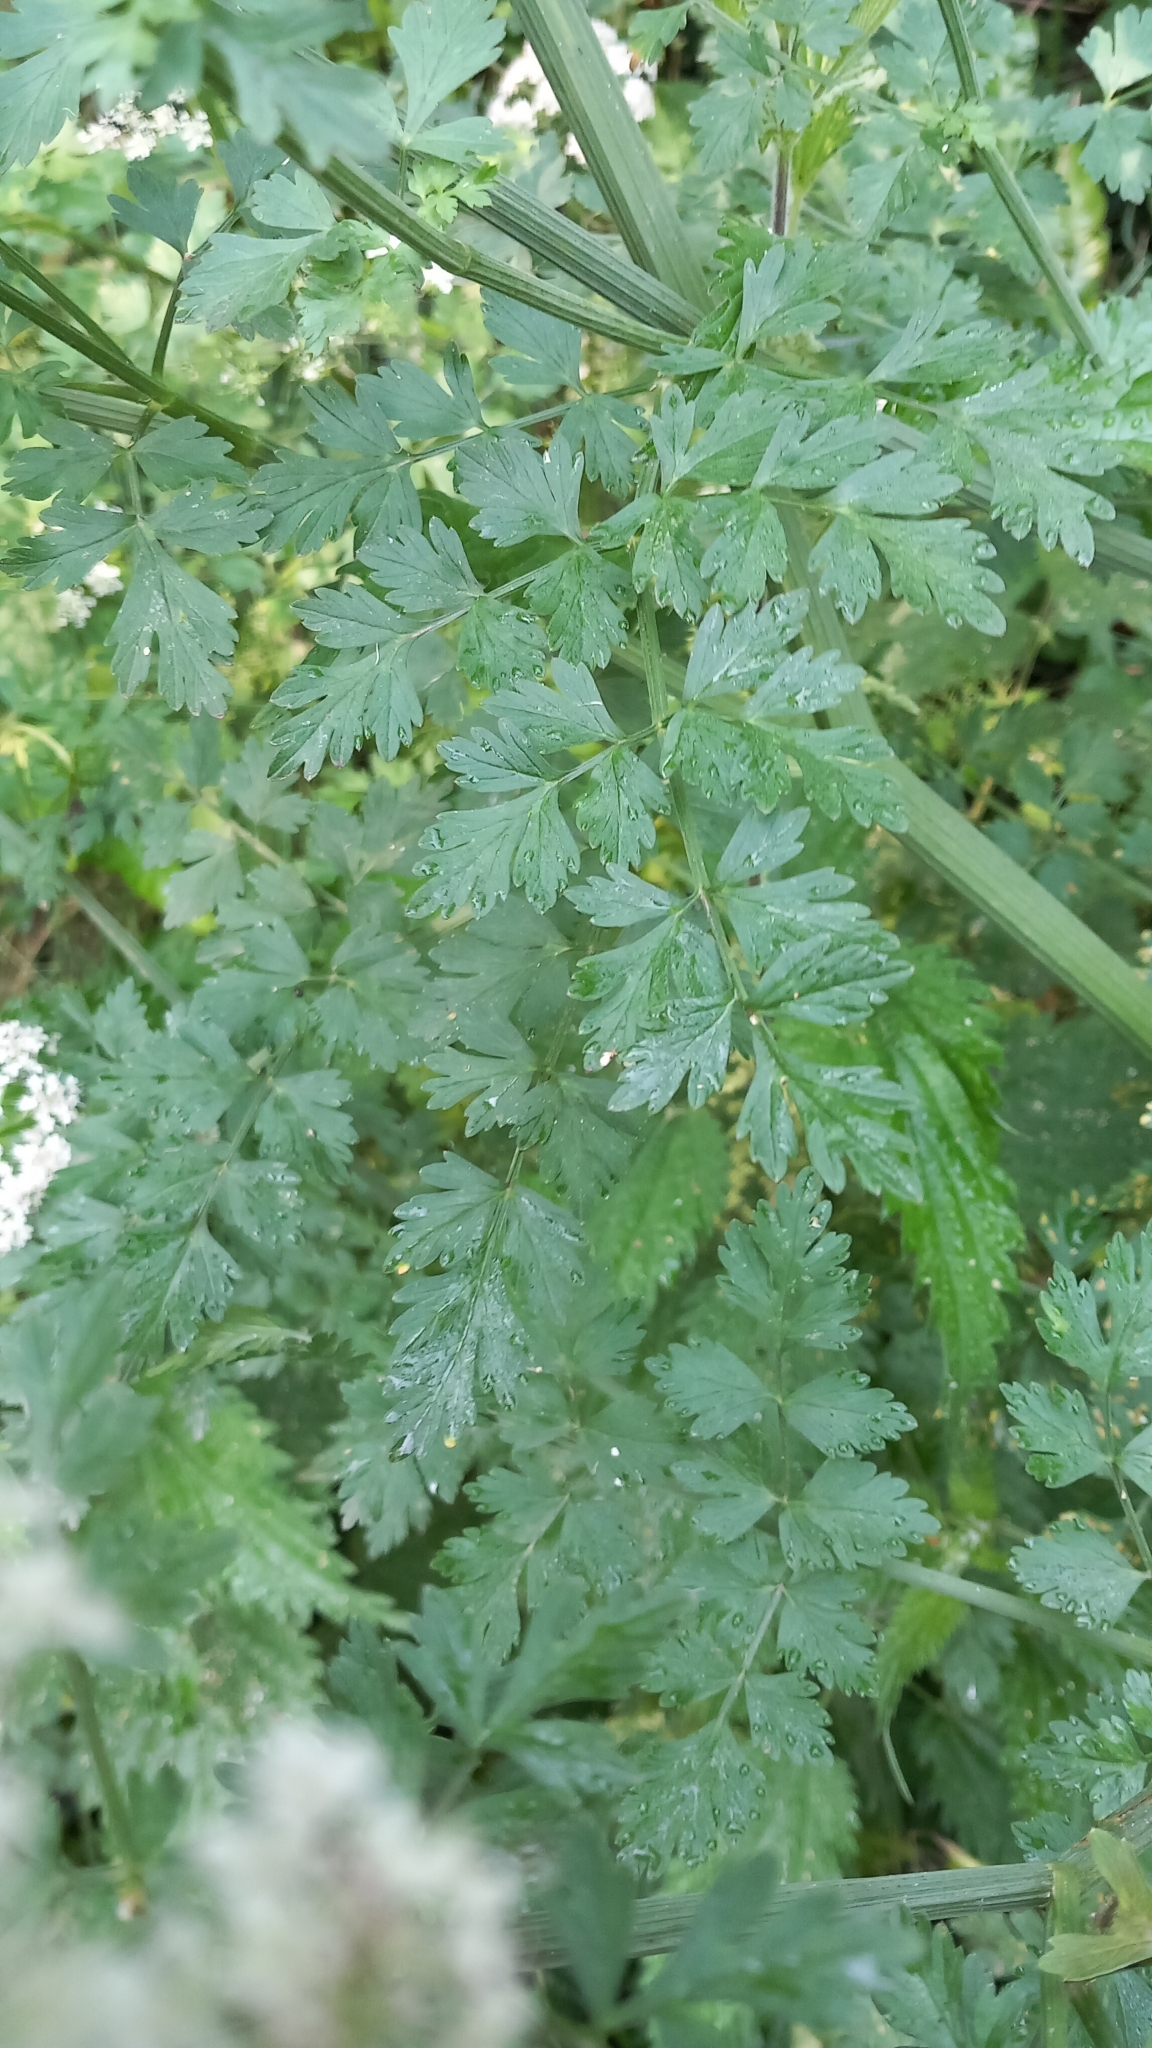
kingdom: Plantae
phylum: Tracheophyta
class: Magnoliopsida
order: Apiales
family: Apiaceae
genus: Oenanthe
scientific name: Oenanthe crocata
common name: Hemlock water-dropwort
